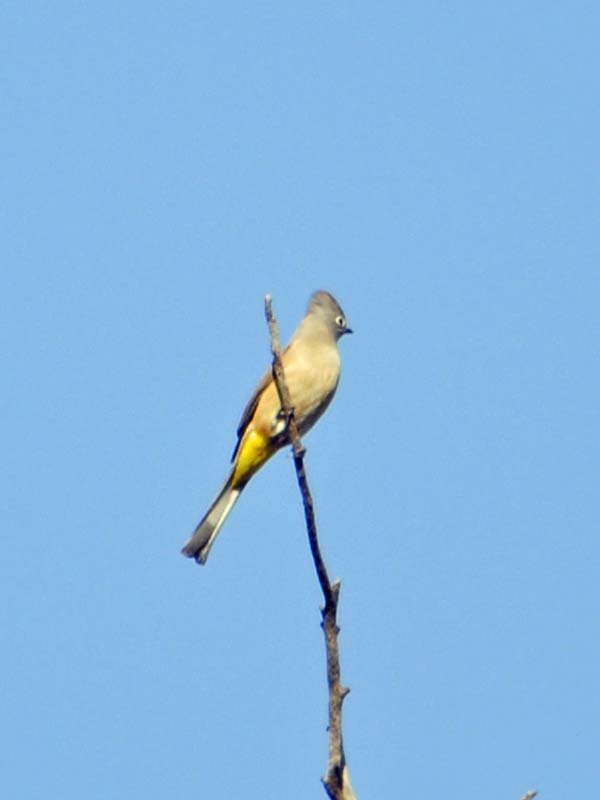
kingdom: Animalia
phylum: Chordata
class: Aves
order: Passeriformes
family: Ptilogonatidae
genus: Ptilogonys
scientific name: Ptilogonys cinereus
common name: Gray silky-flycatcher
